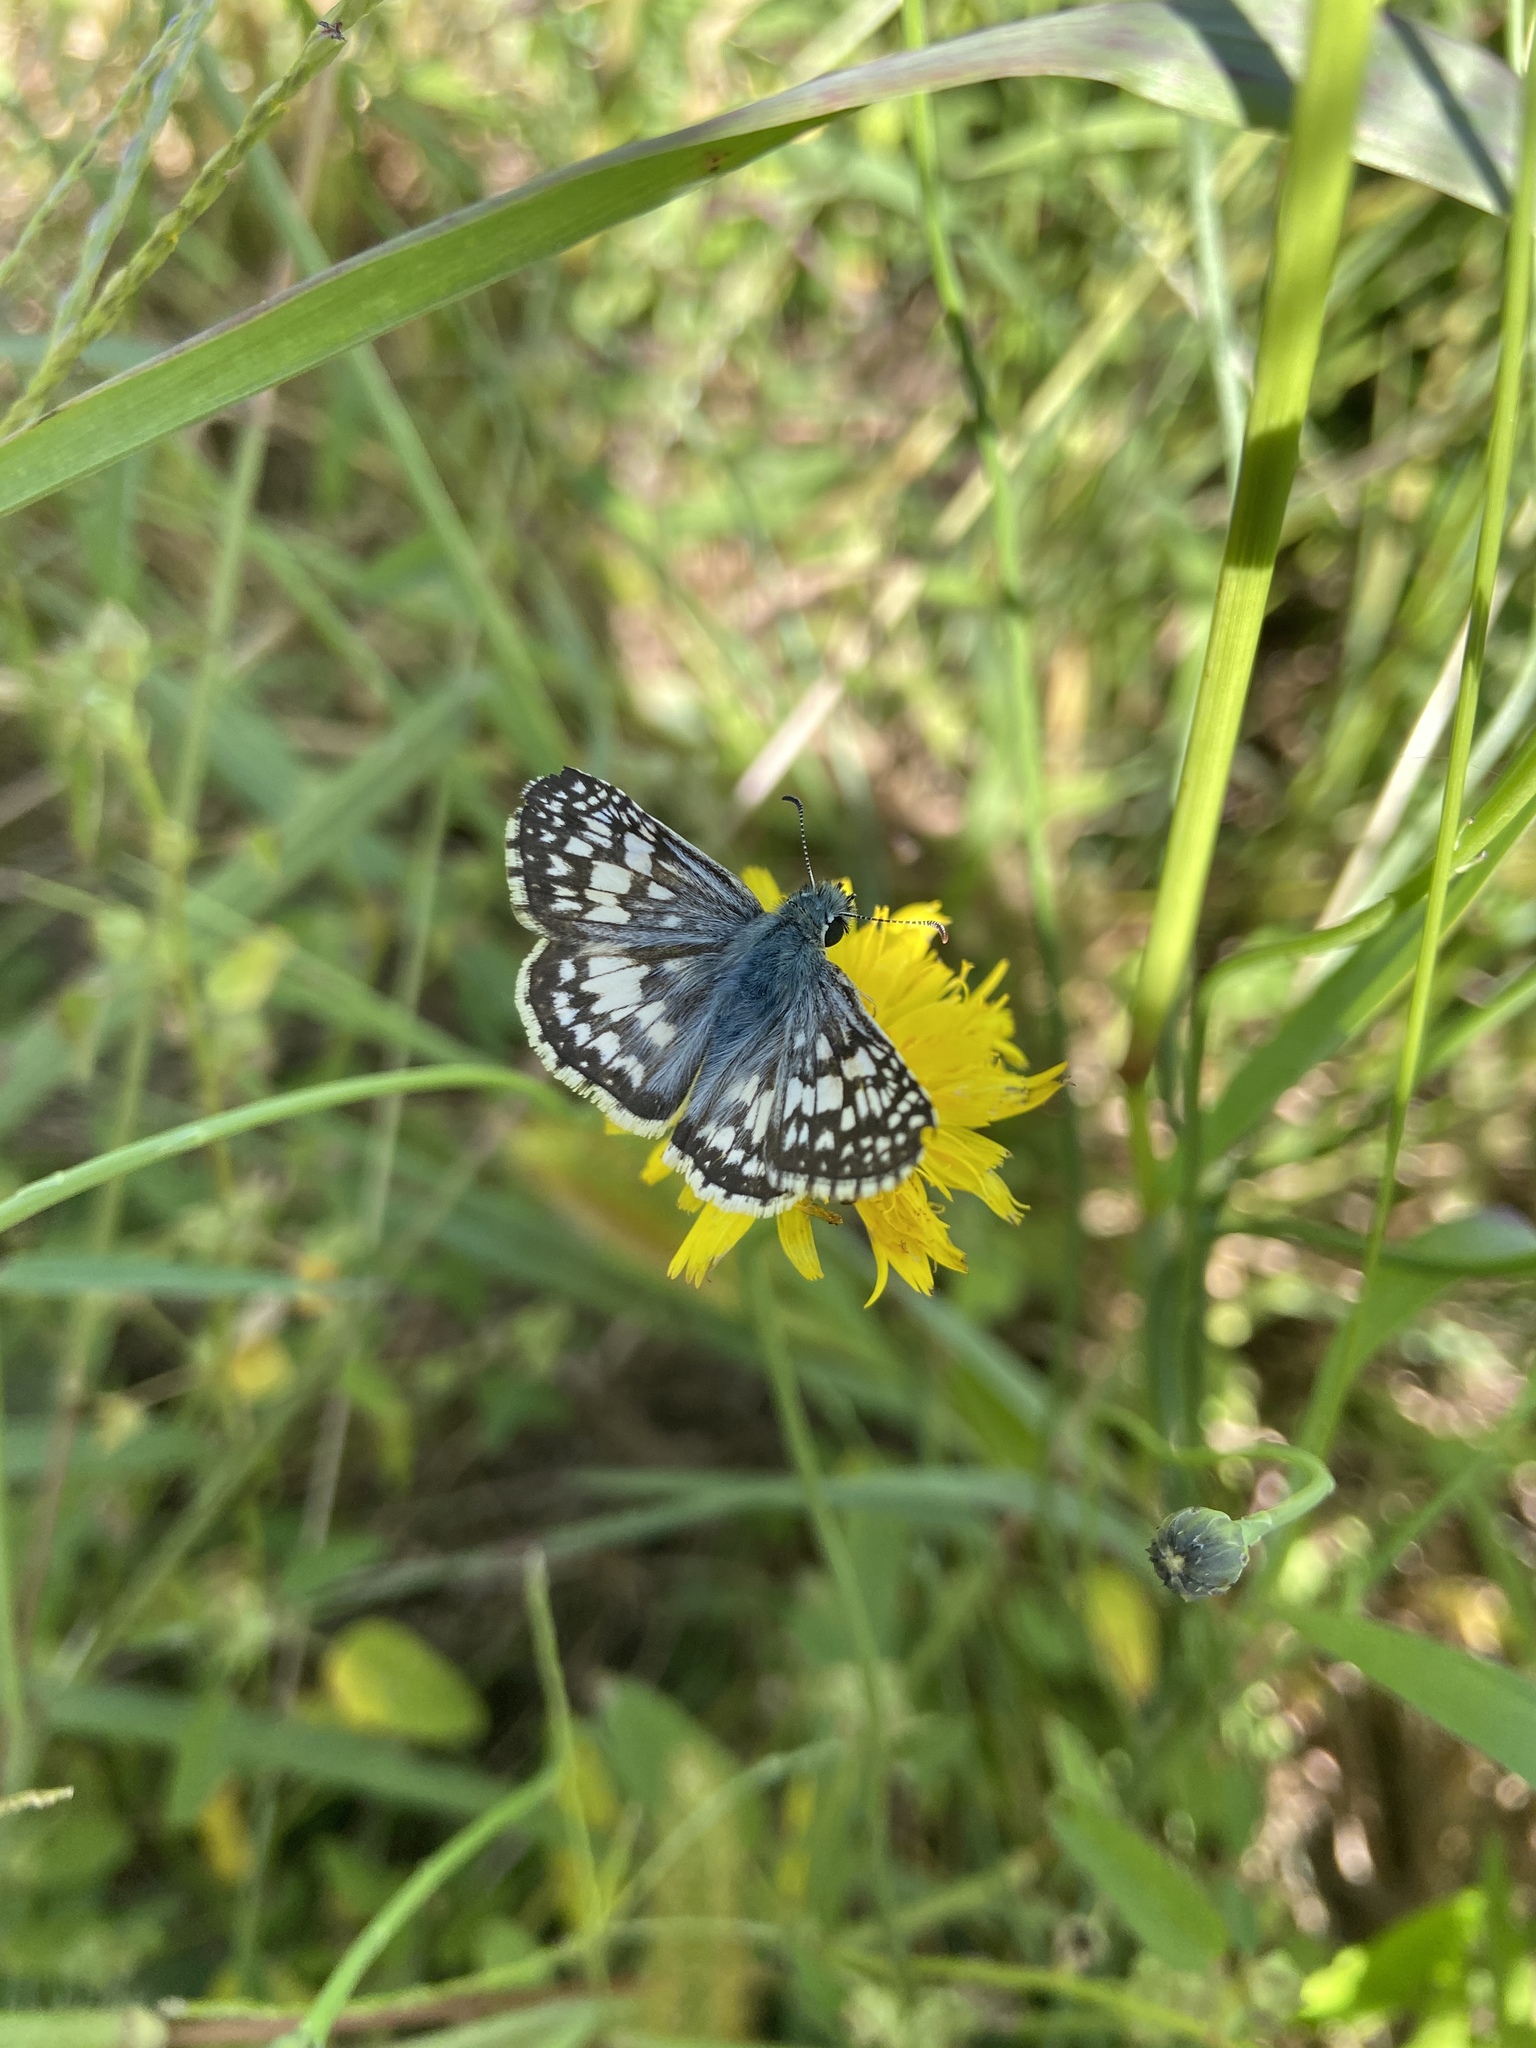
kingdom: Animalia
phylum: Arthropoda
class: Insecta
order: Lepidoptera
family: Hesperiidae
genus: Burnsius
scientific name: Burnsius communis
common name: Common checkered-skipper
